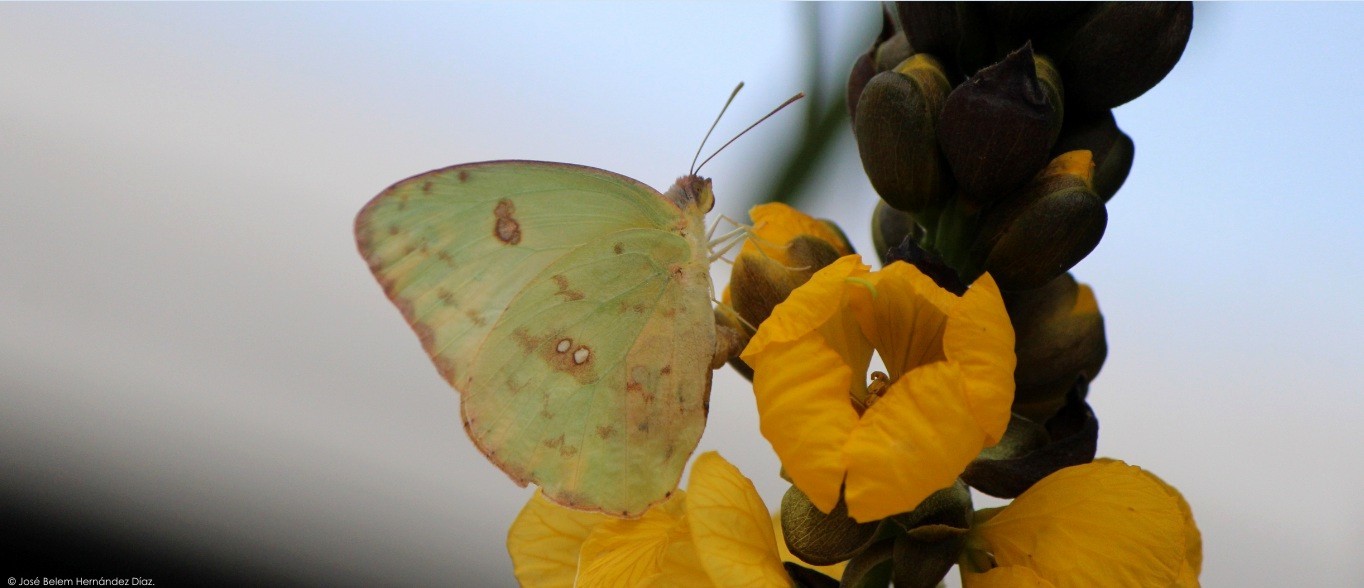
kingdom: Animalia
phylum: Arthropoda
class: Insecta
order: Lepidoptera
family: Pieridae
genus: Phoebis
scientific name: Phoebis sennae
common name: Cloudless sulphur
